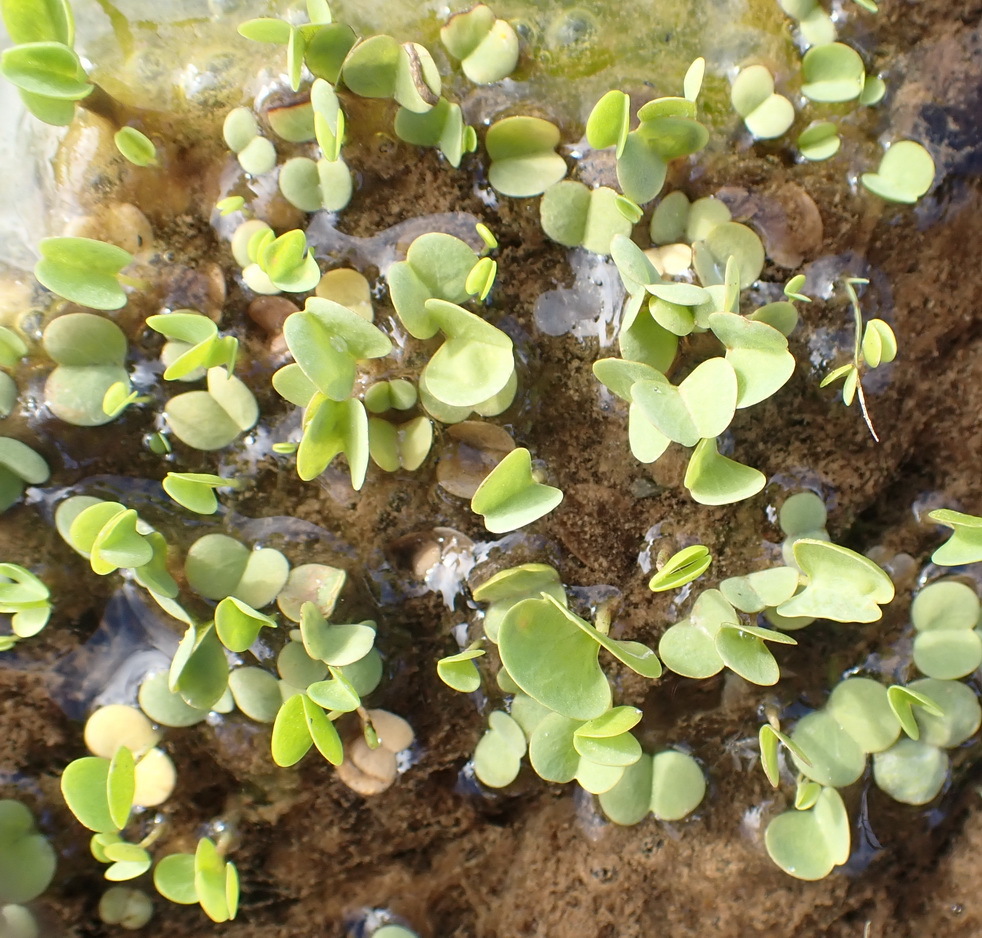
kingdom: Plantae
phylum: Tracheophyta
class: Magnoliopsida
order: Oxalidales
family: Oxalidaceae
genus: Oxalis
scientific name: Oxalis dregei
